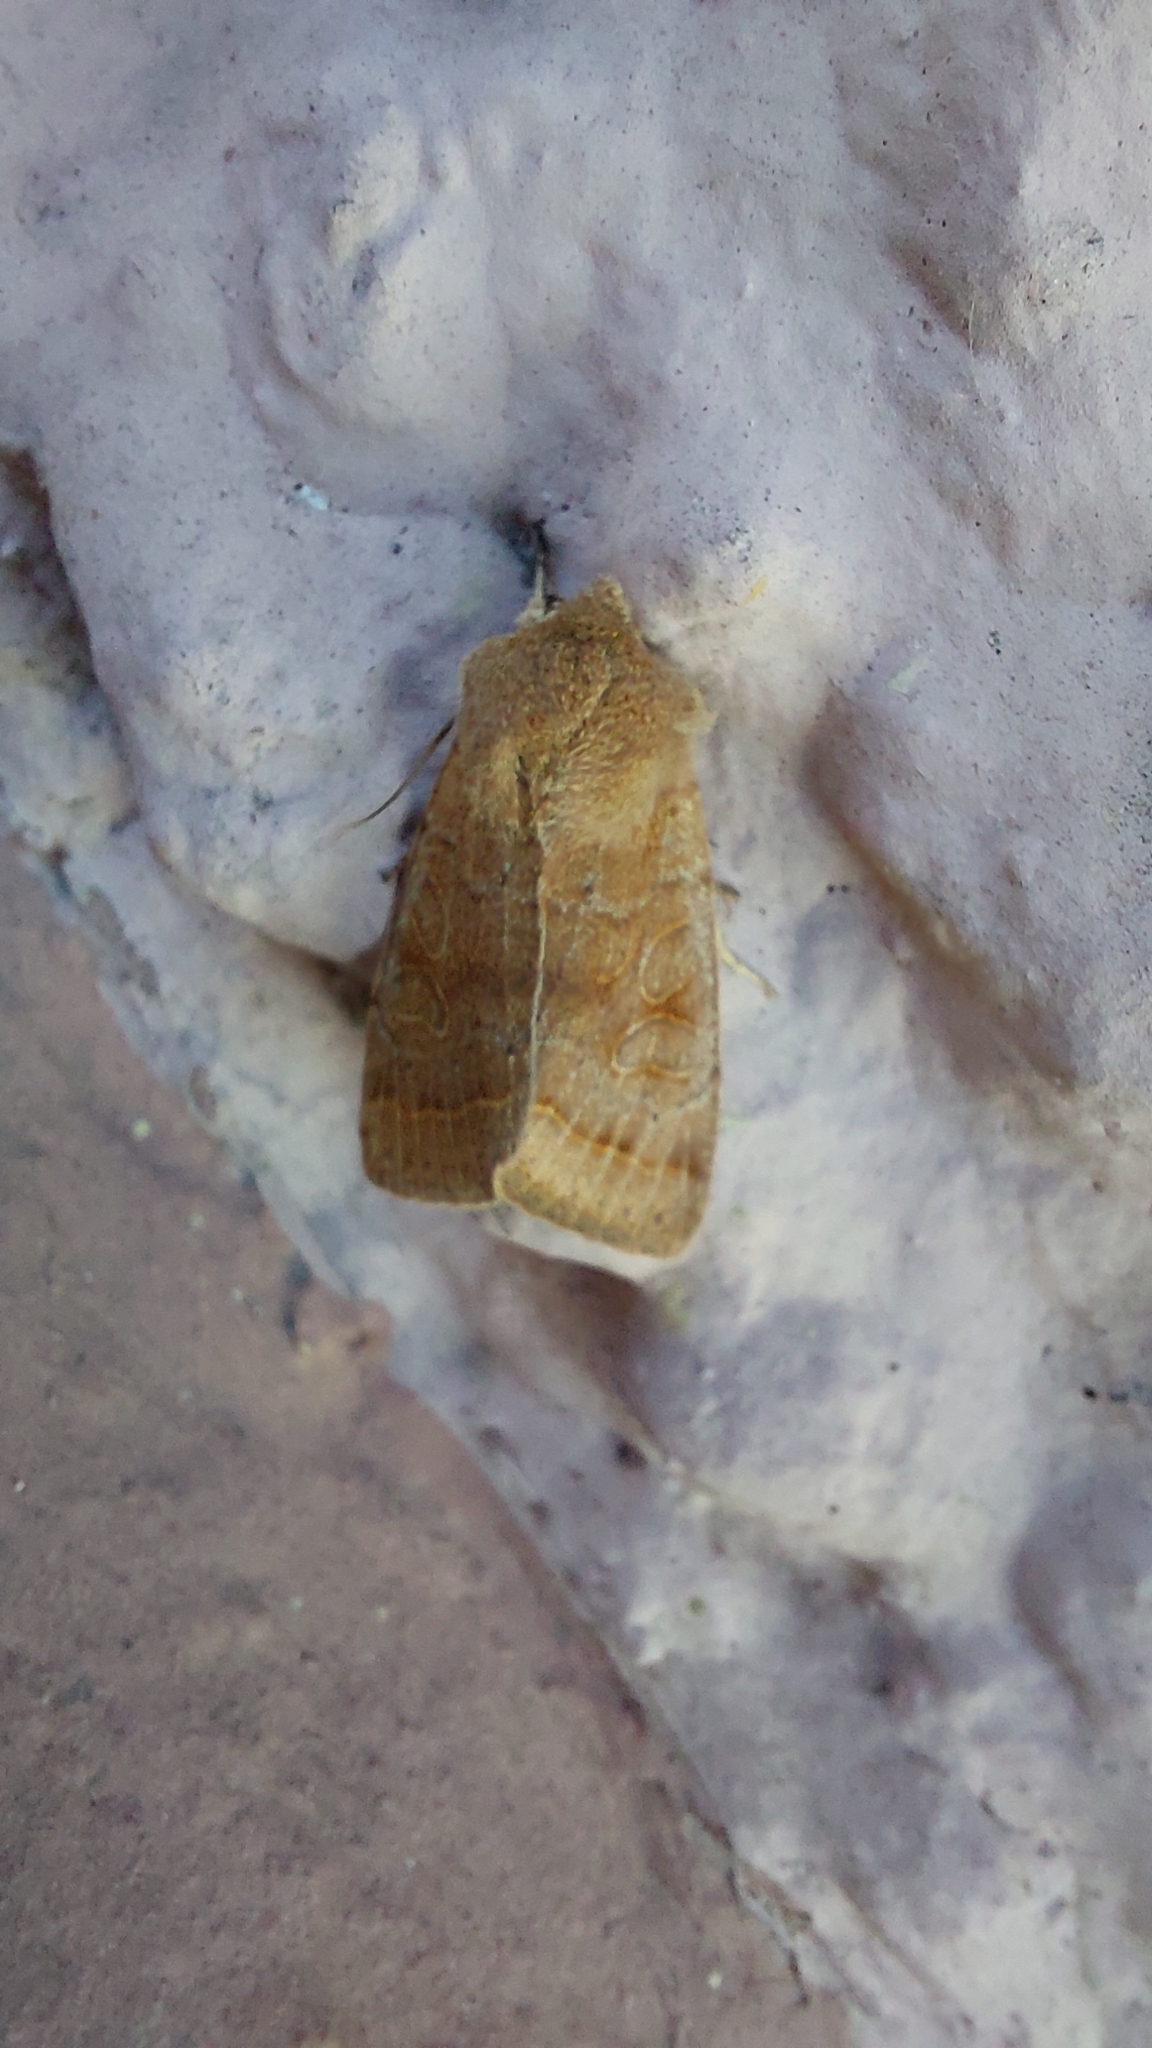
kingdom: Animalia
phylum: Arthropoda
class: Insecta
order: Lepidoptera
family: Noctuidae
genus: Orthosia
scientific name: Orthosia cerasi
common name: Common quaker
